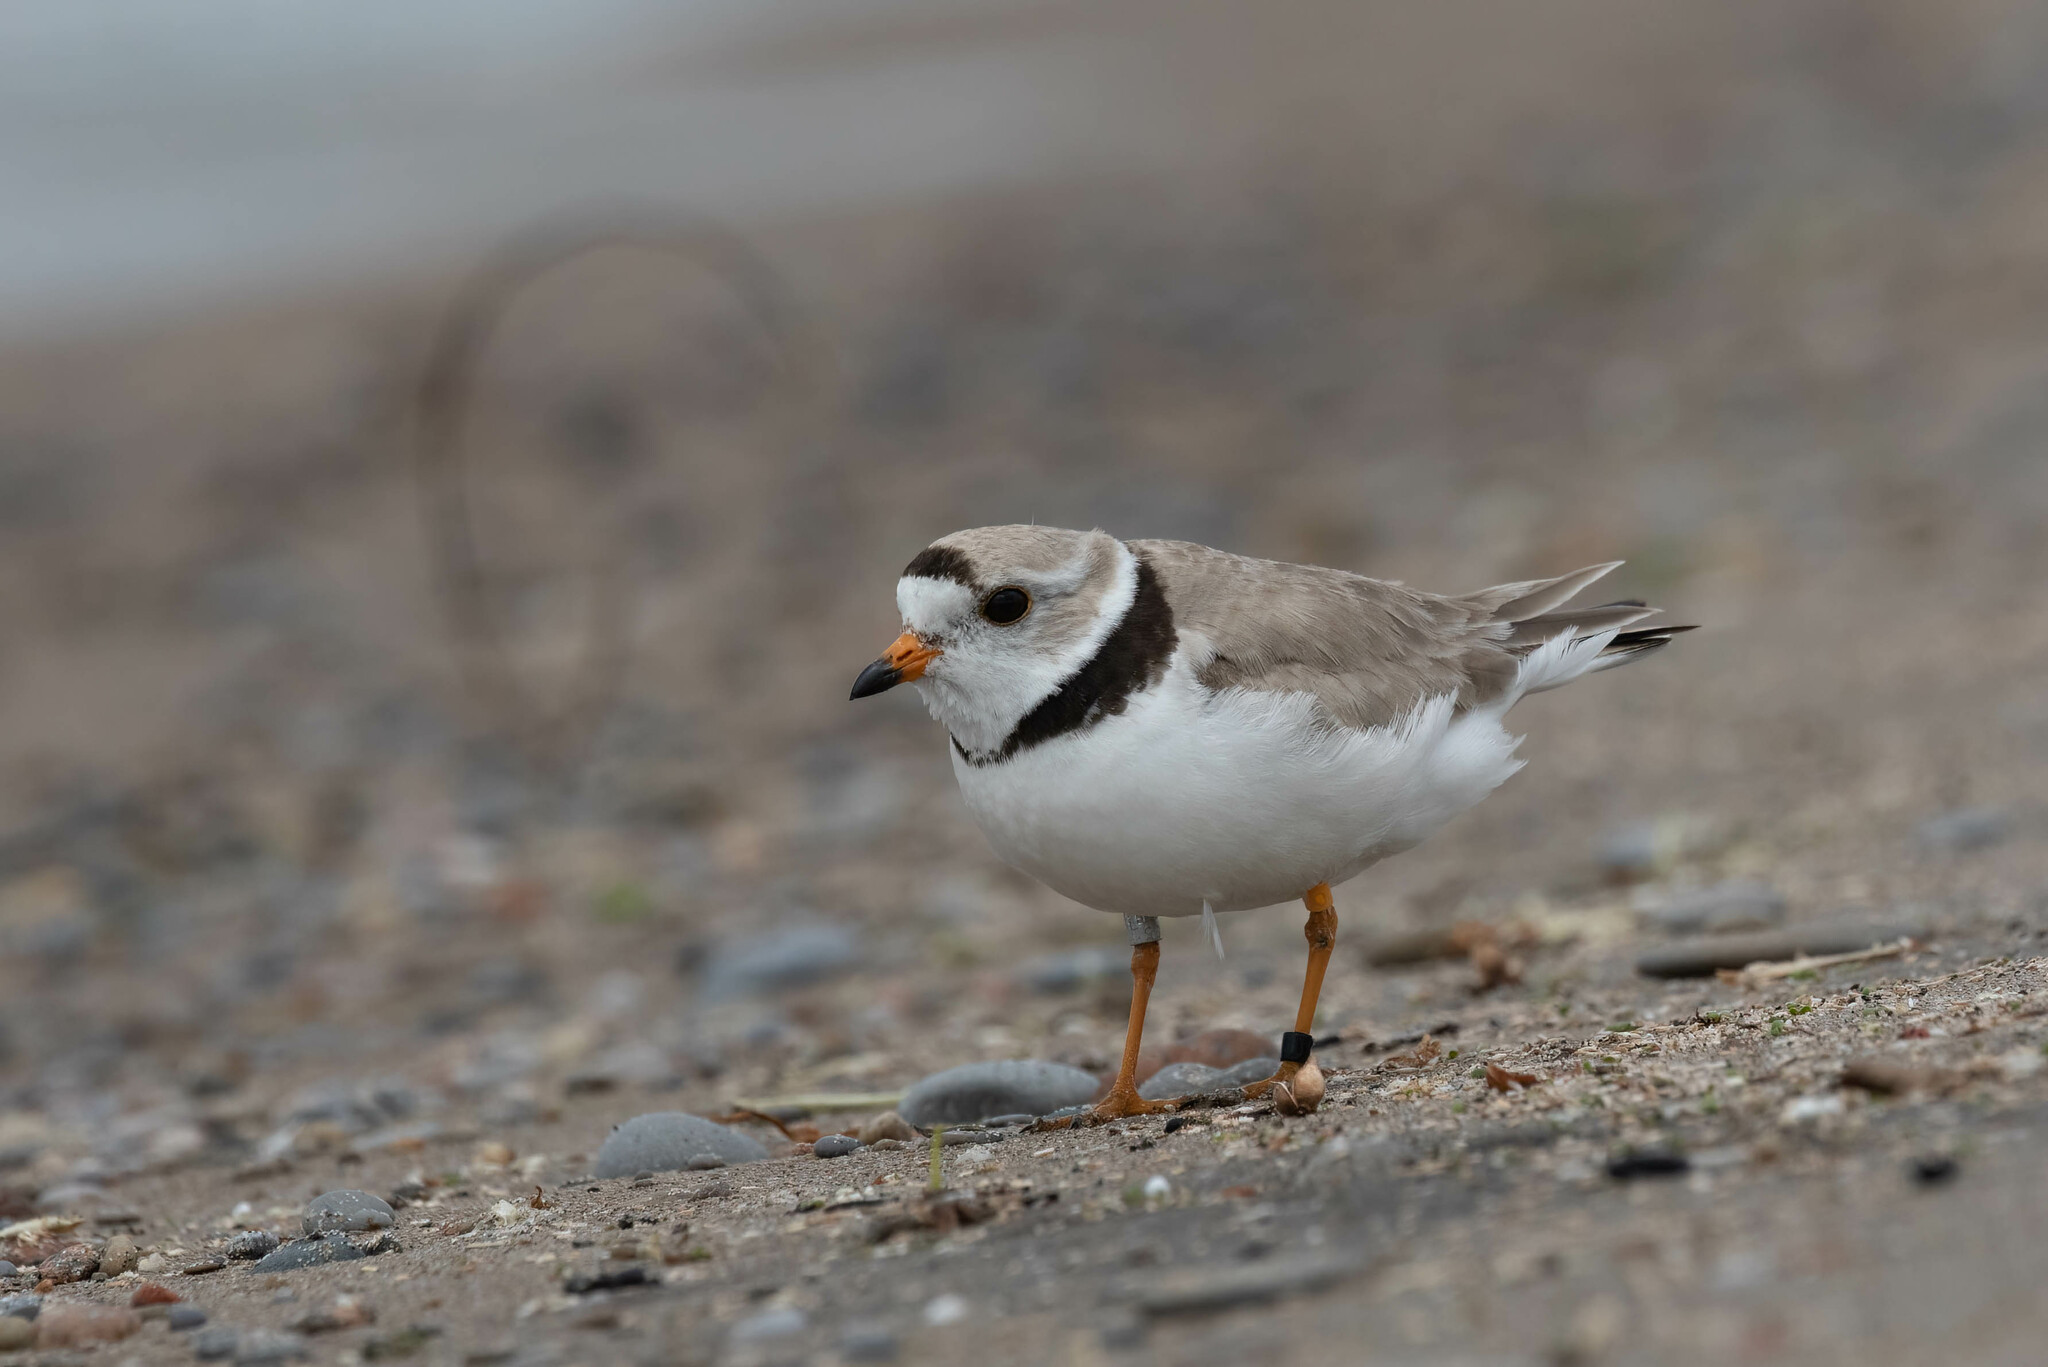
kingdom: Animalia
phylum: Chordata
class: Aves
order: Charadriiformes
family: Charadriidae
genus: Charadrius
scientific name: Charadrius melodus
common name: Piping plover
